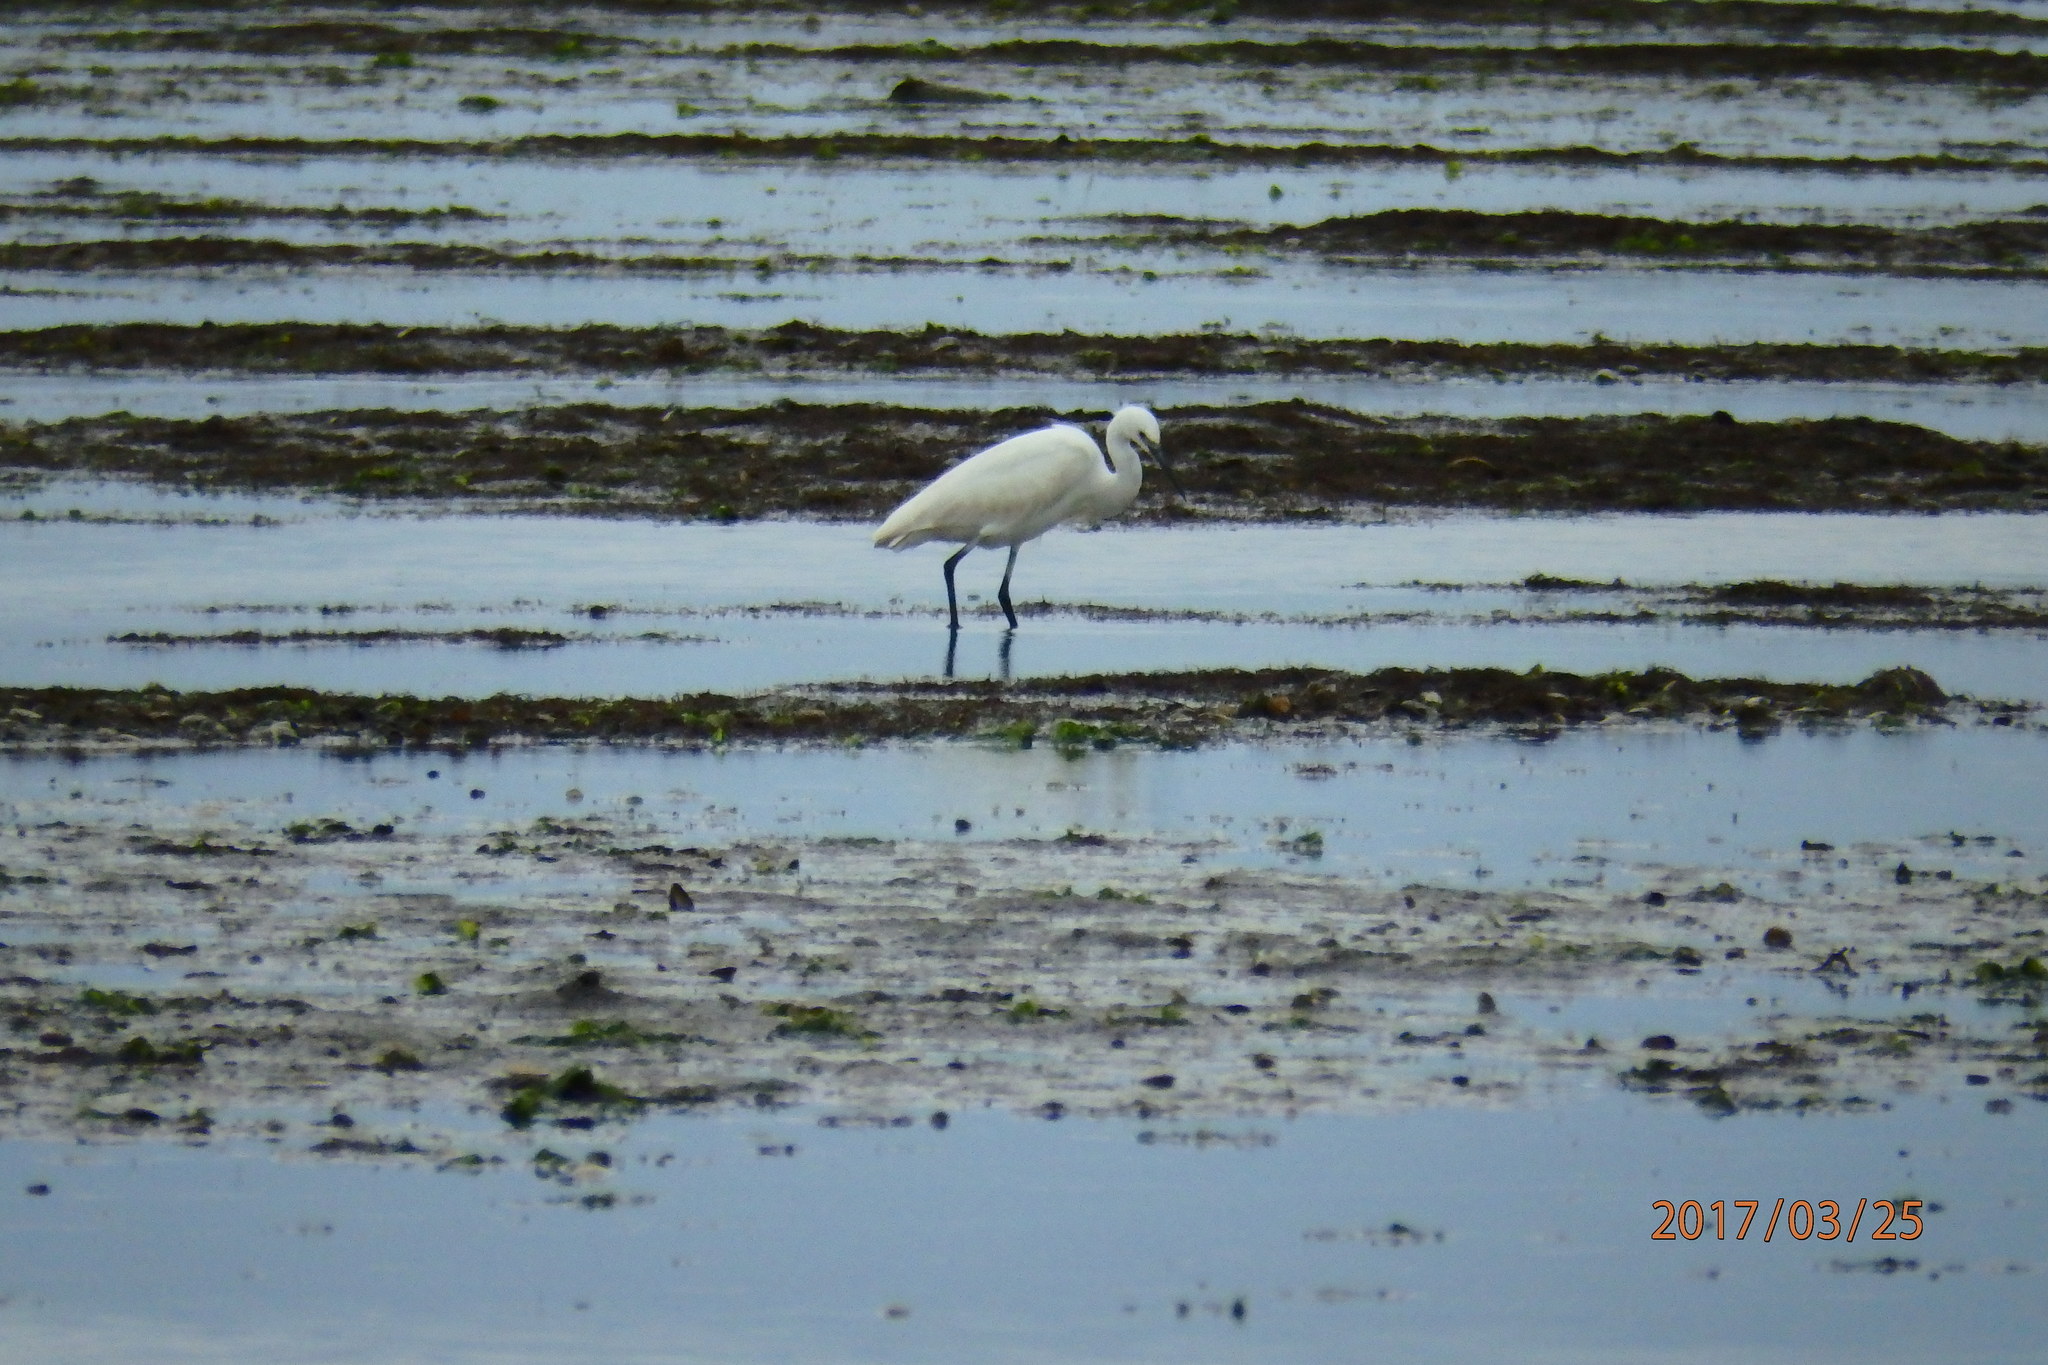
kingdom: Animalia
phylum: Chordata
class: Aves
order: Pelecaniformes
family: Ardeidae
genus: Egretta
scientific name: Egretta garzetta
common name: Little egret
